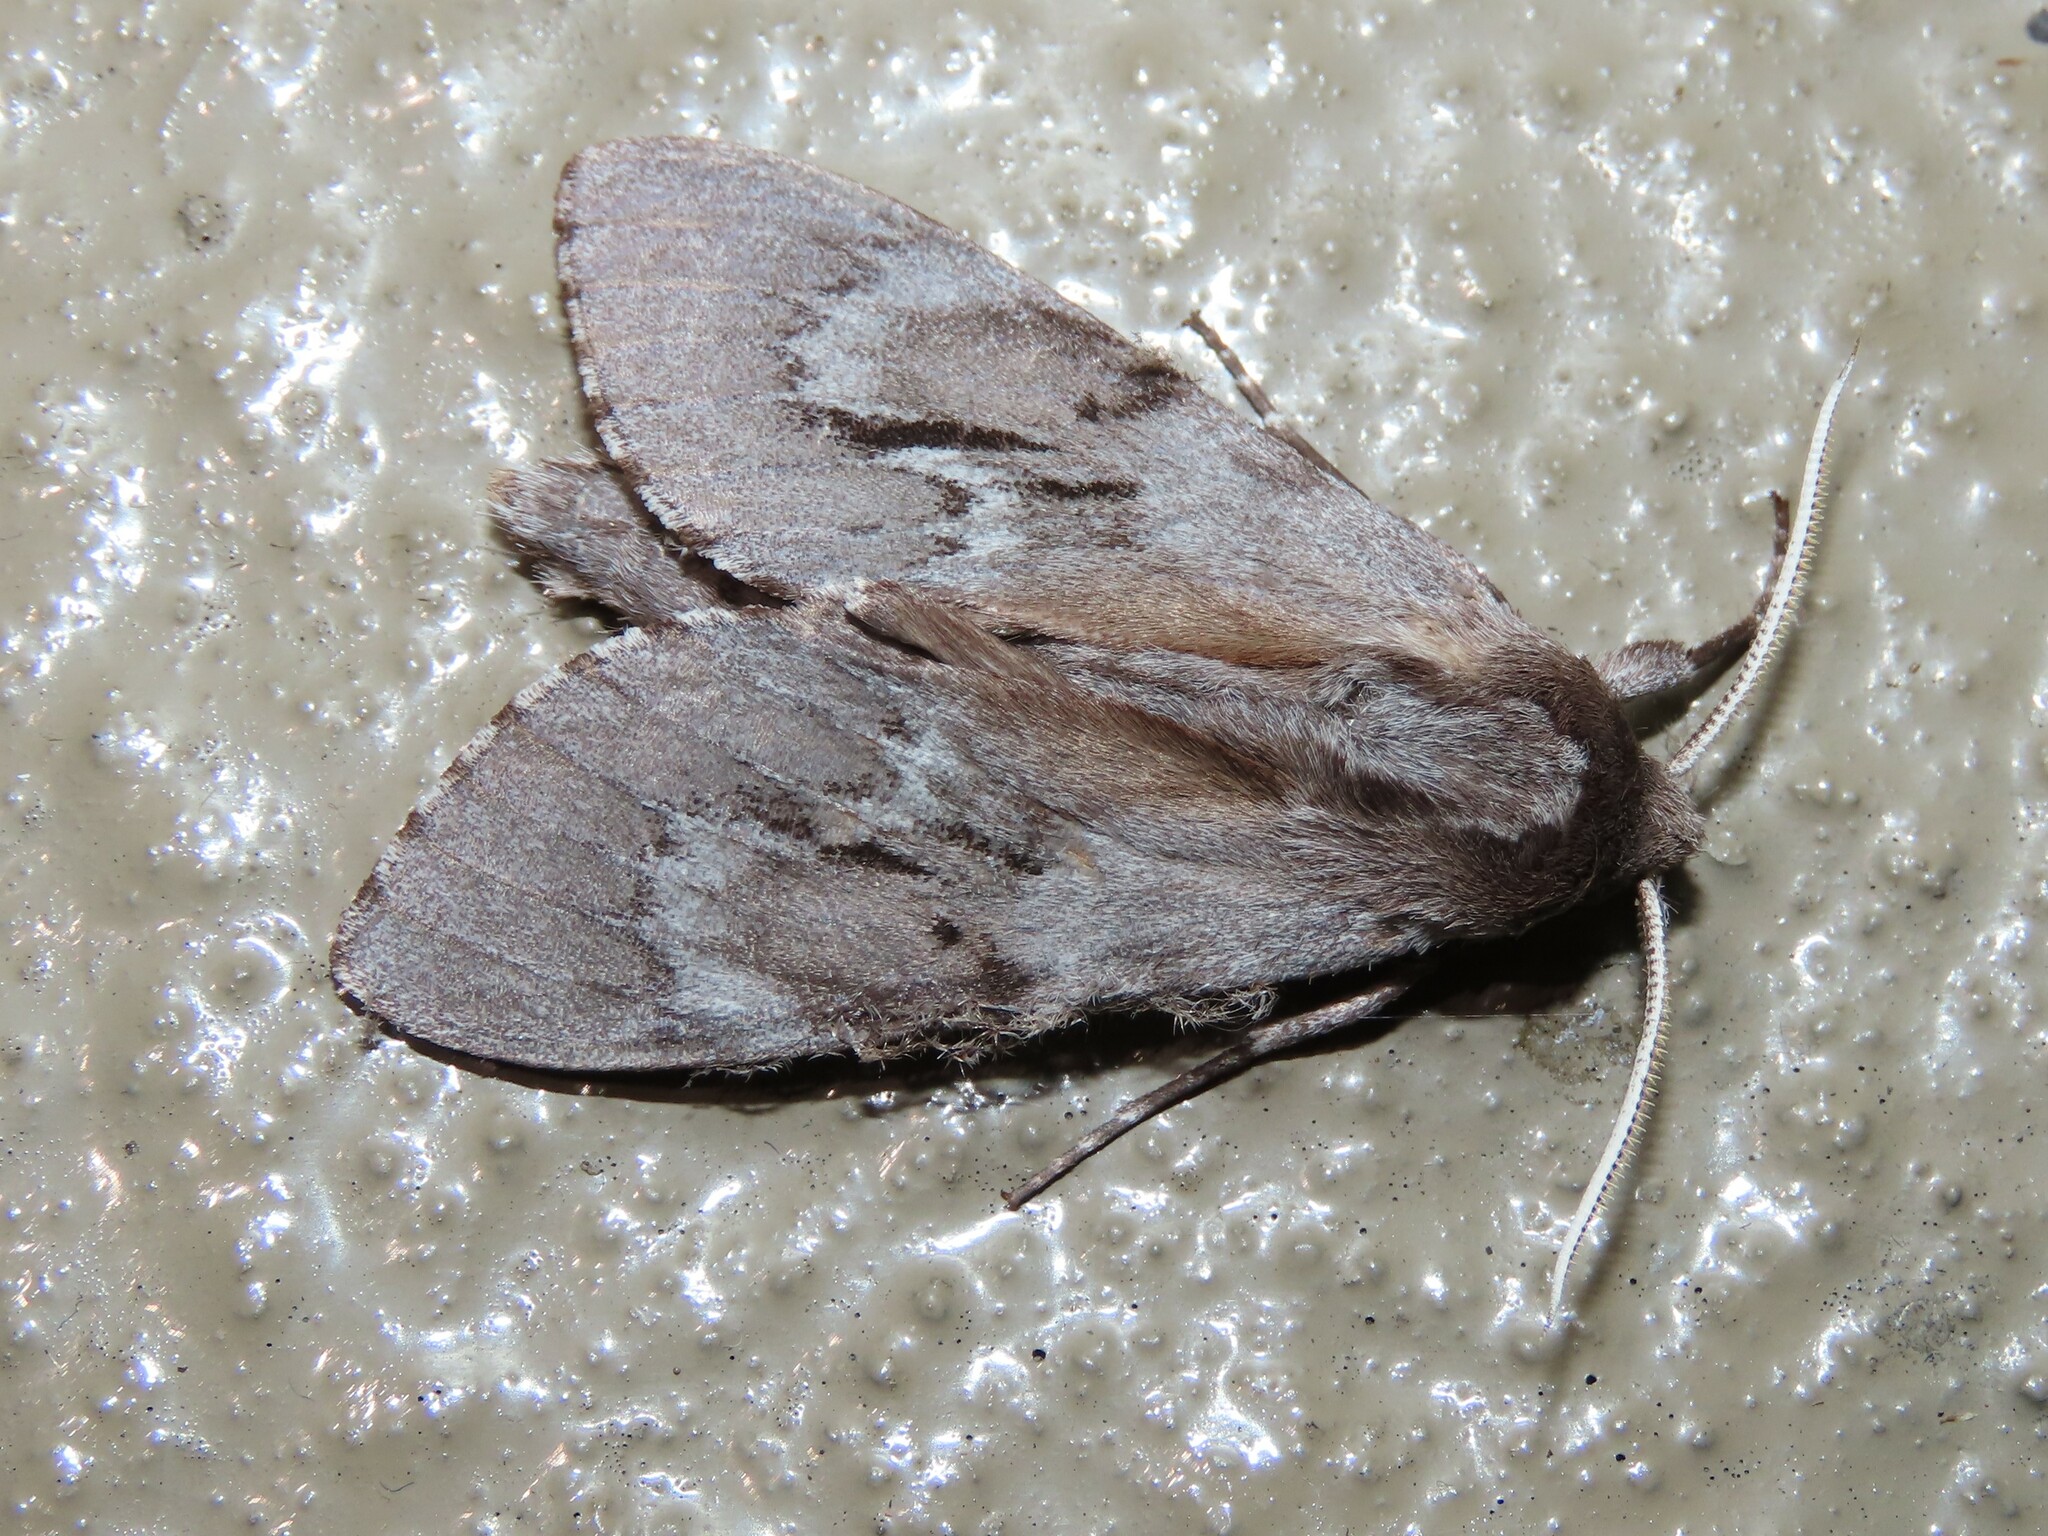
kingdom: Animalia
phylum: Arthropoda
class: Insecta
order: Lepidoptera
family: Sphingidae
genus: Lapara
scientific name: Lapara coniferarum
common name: Southern pine sphinx
